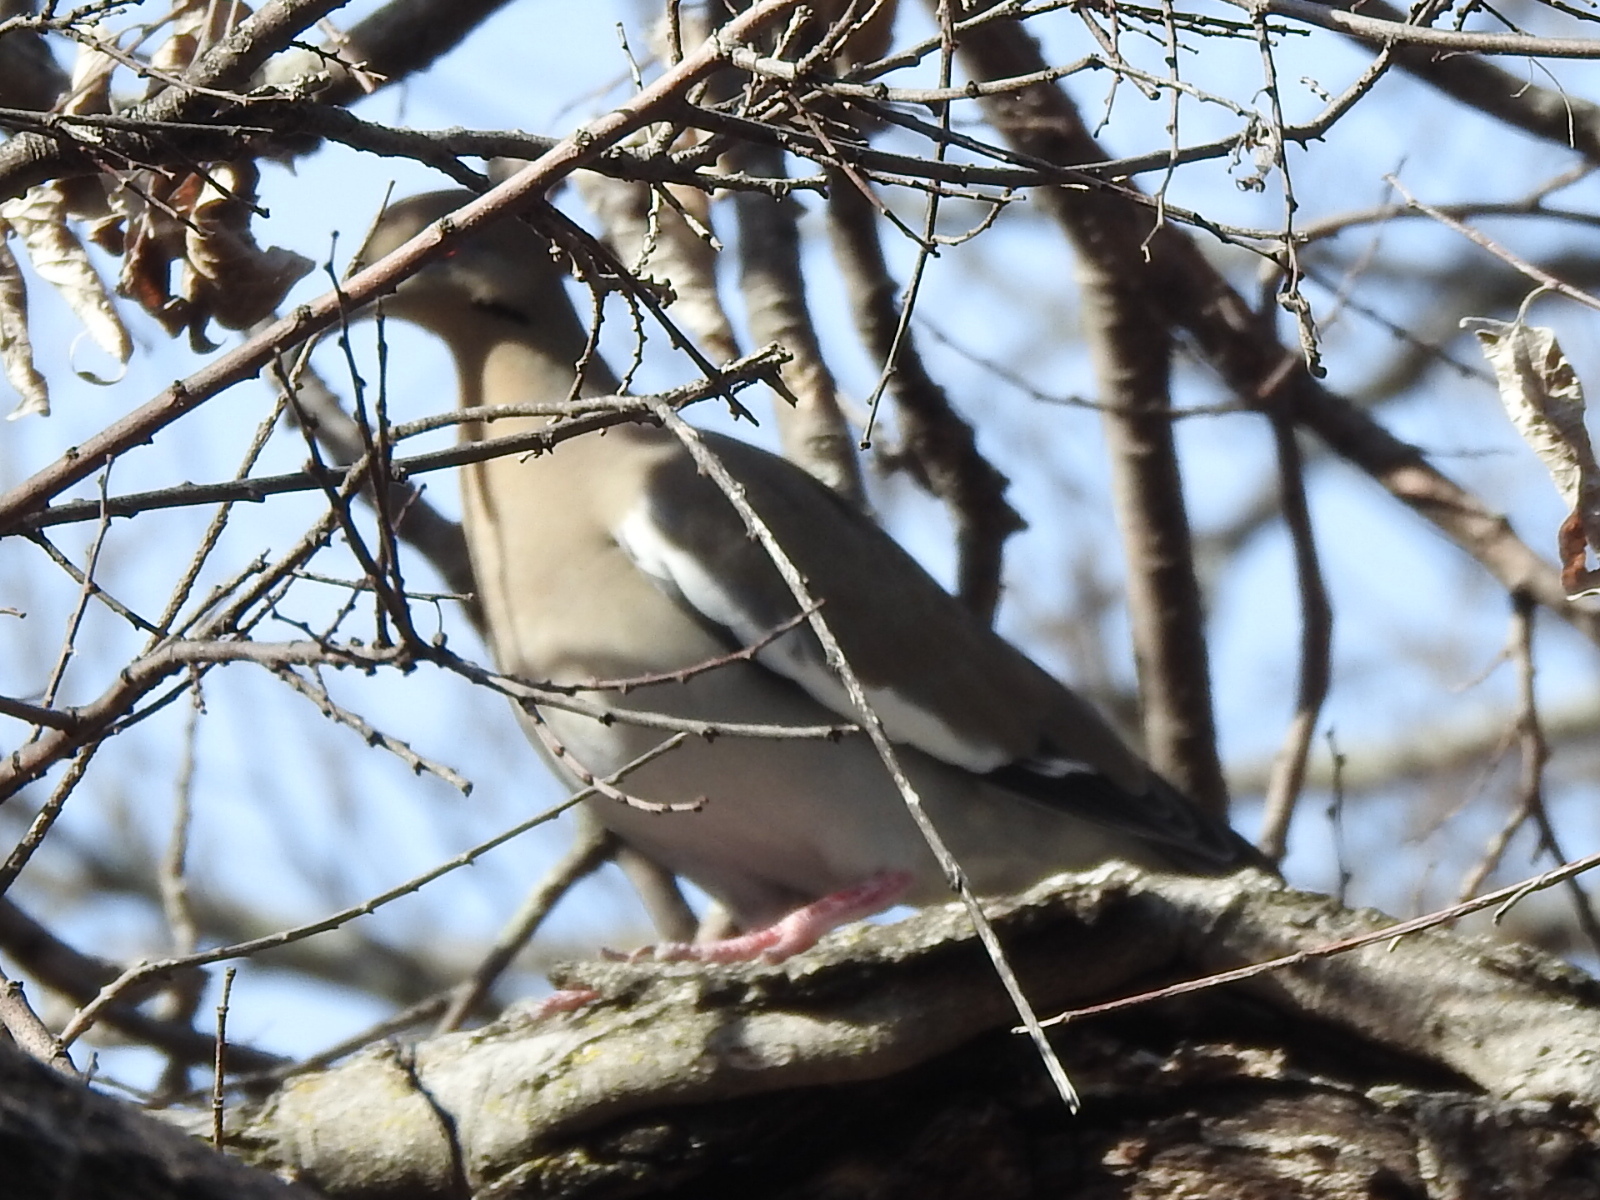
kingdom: Animalia
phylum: Chordata
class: Aves
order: Columbiformes
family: Columbidae
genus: Zenaida
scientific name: Zenaida asiatica
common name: White-winged dove
